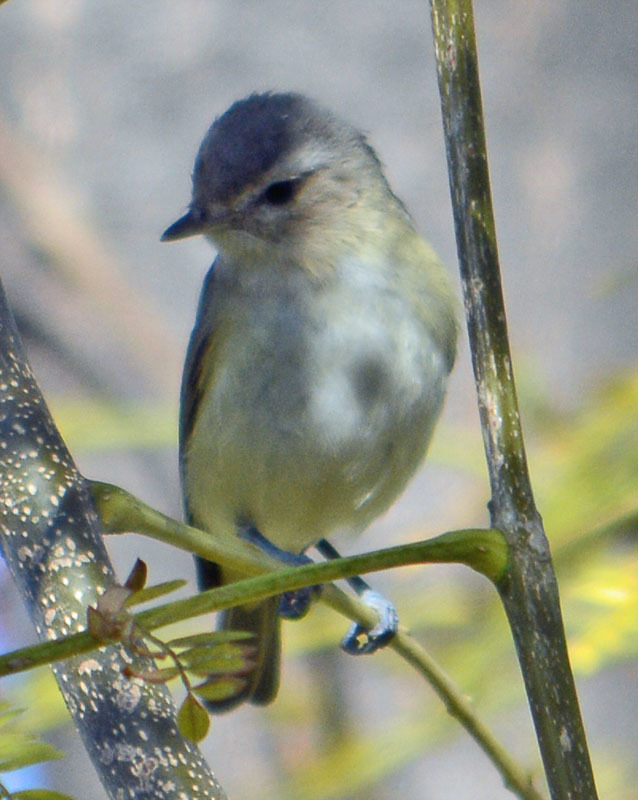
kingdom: Animalia
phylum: Chordata
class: Aves
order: Passeriformes
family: Vireonidae
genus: Vireo
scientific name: Vireo gilvus
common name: Warbling vireo
